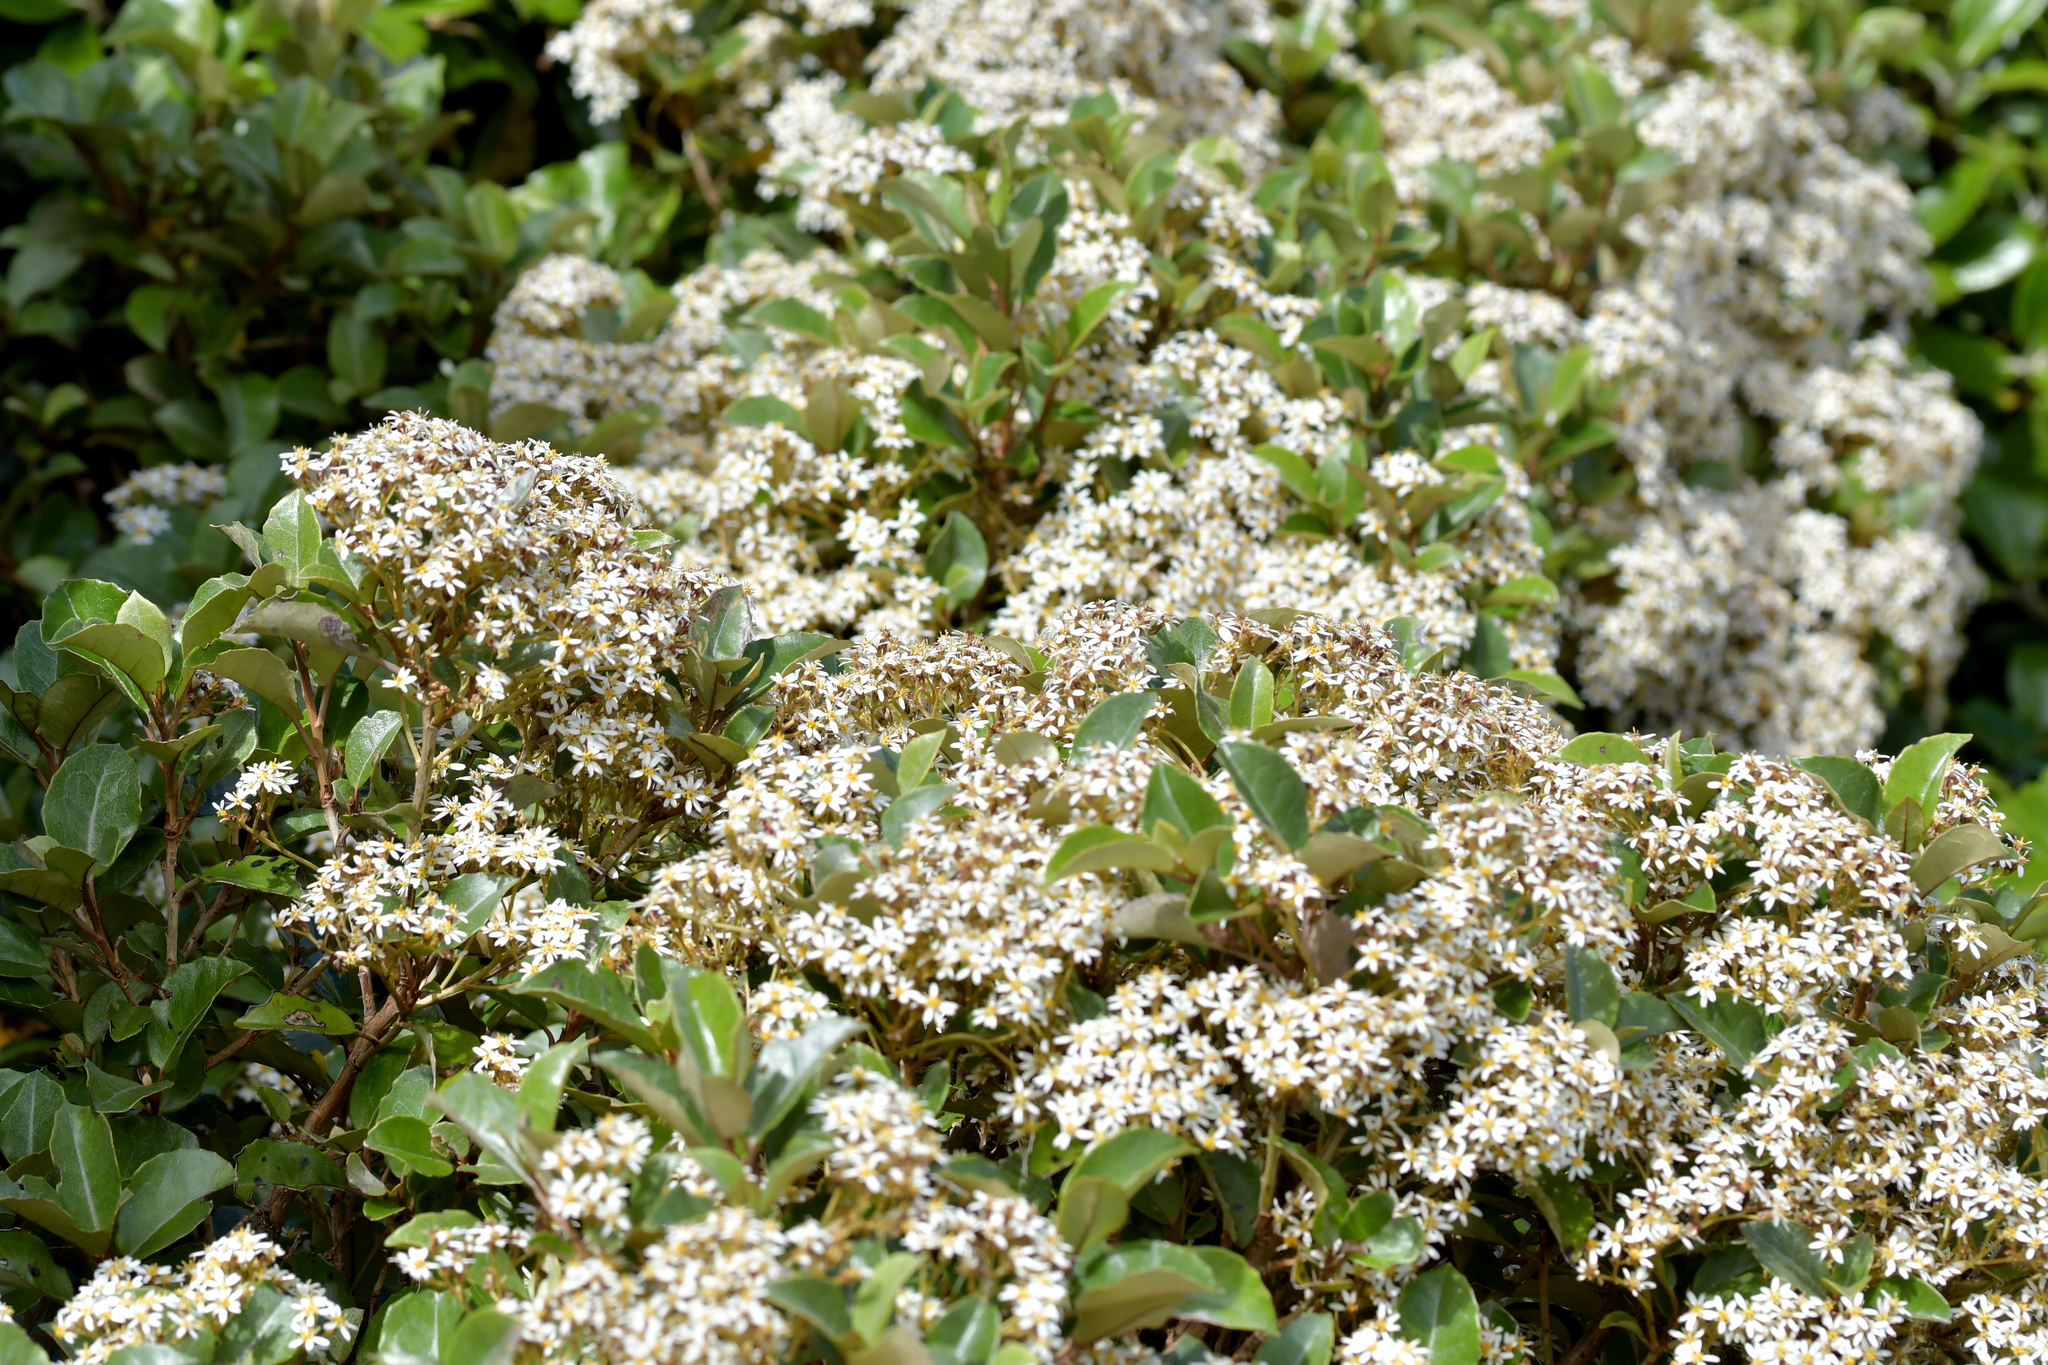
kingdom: Plantae
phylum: Tracheophyta
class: Magnoliopsida
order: Asterales
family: Asteraceae
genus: Olearia
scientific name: Olearia arborescens
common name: Glossy tree daisy
